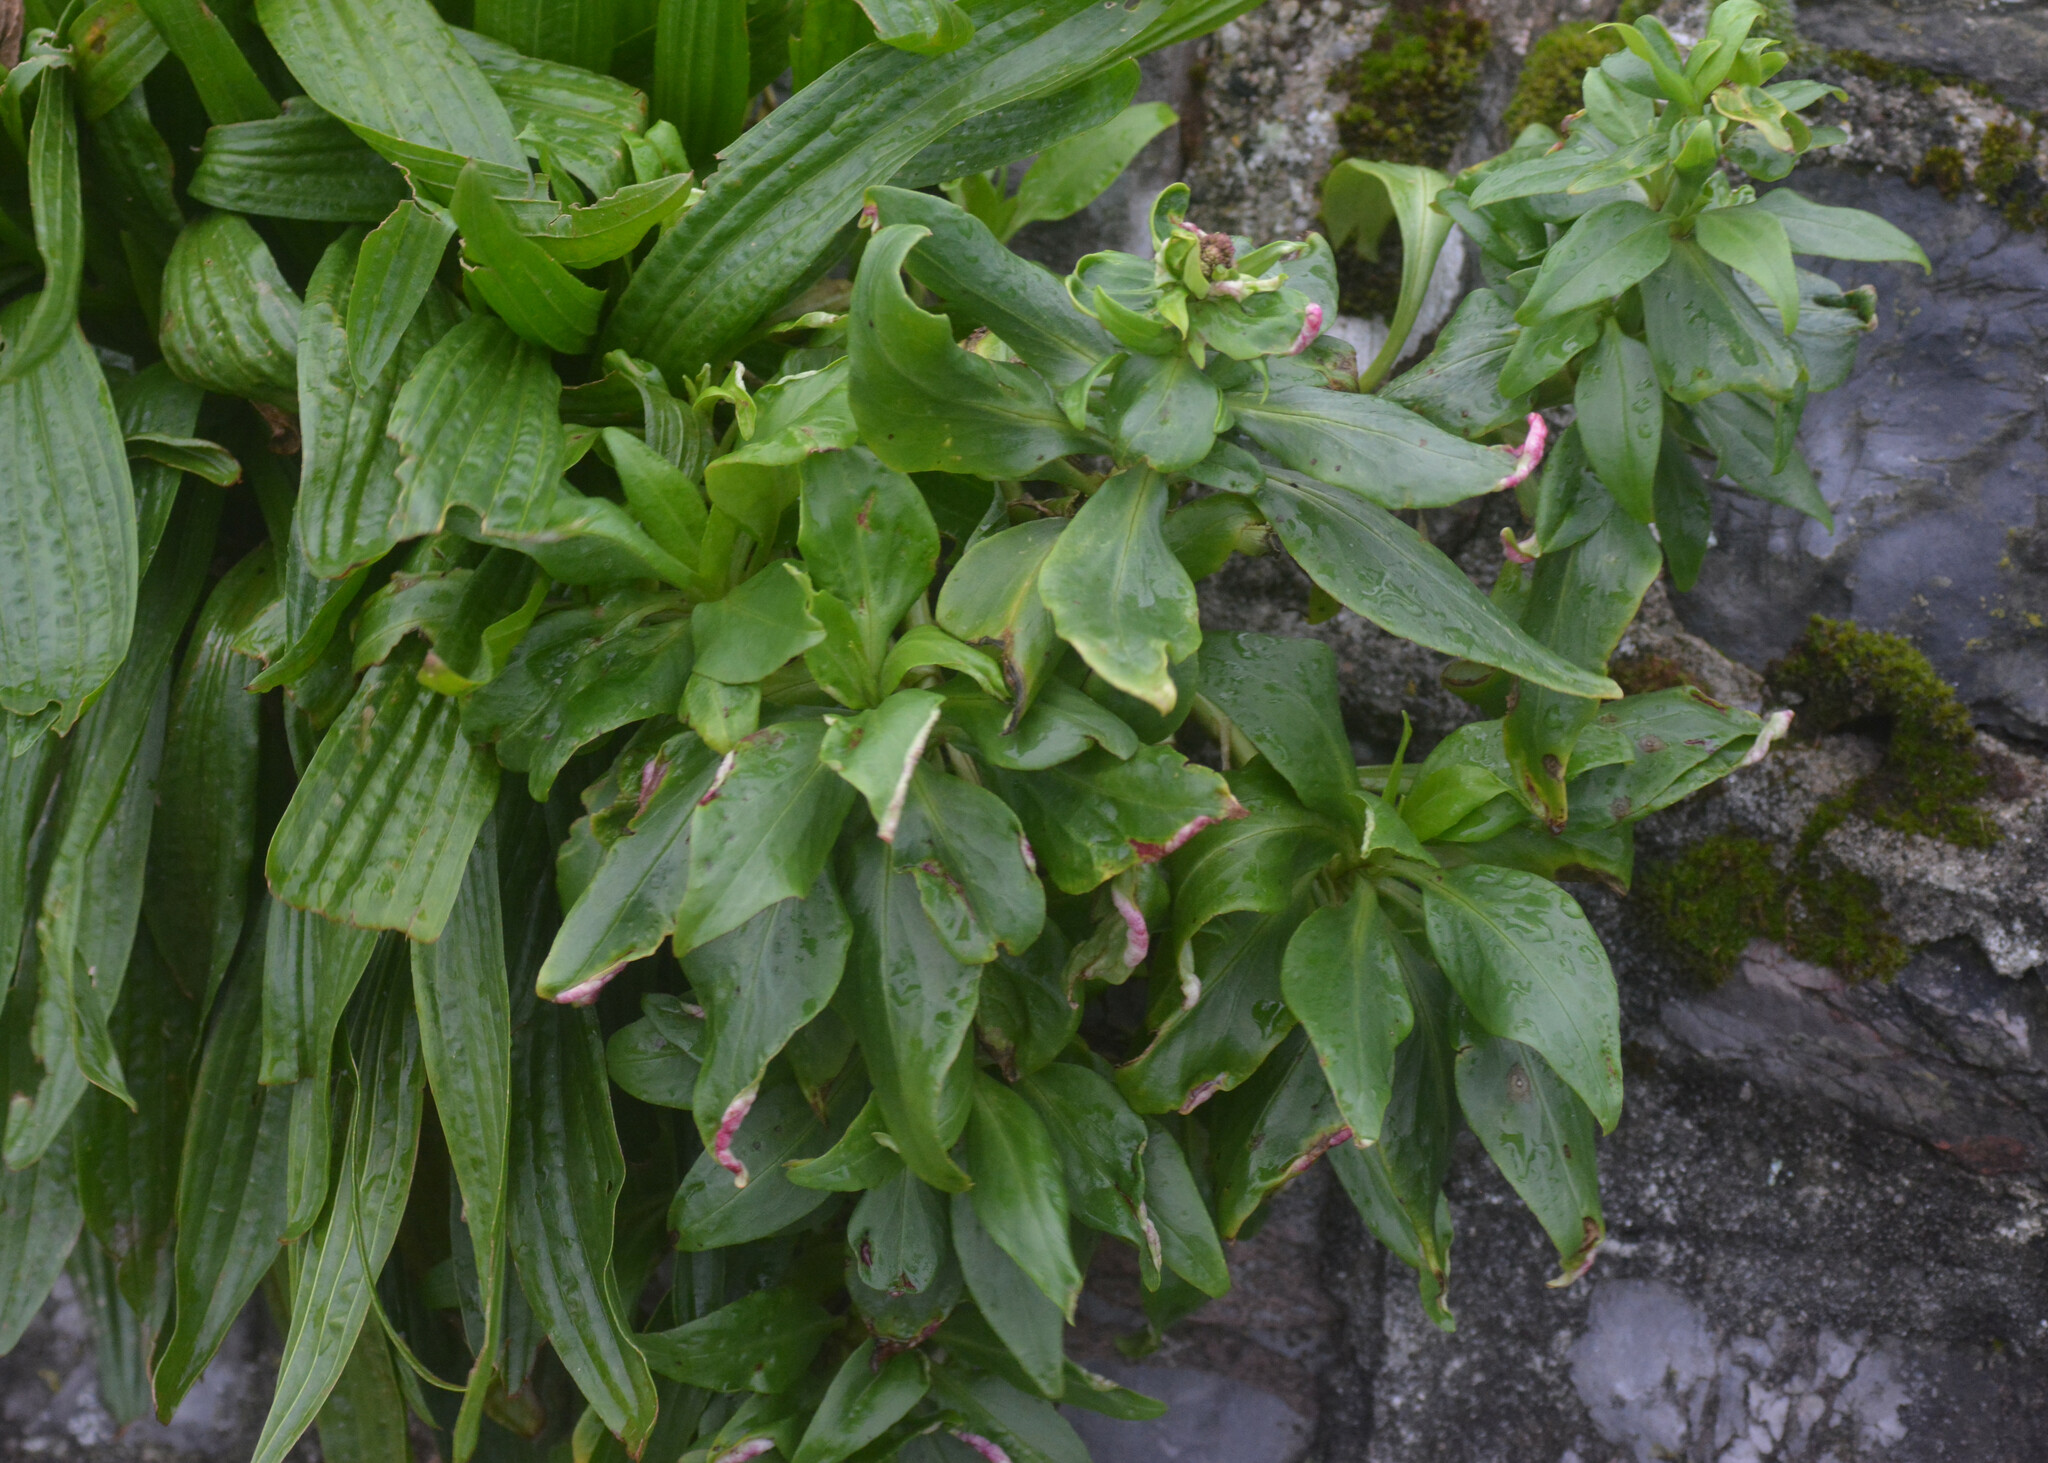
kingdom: Plantae
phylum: Tracheophyta
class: Magnoliopsida
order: Dipsacales
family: Caprifoliaceae
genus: Centranthus
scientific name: Centranthus ruber
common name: Red valerian
